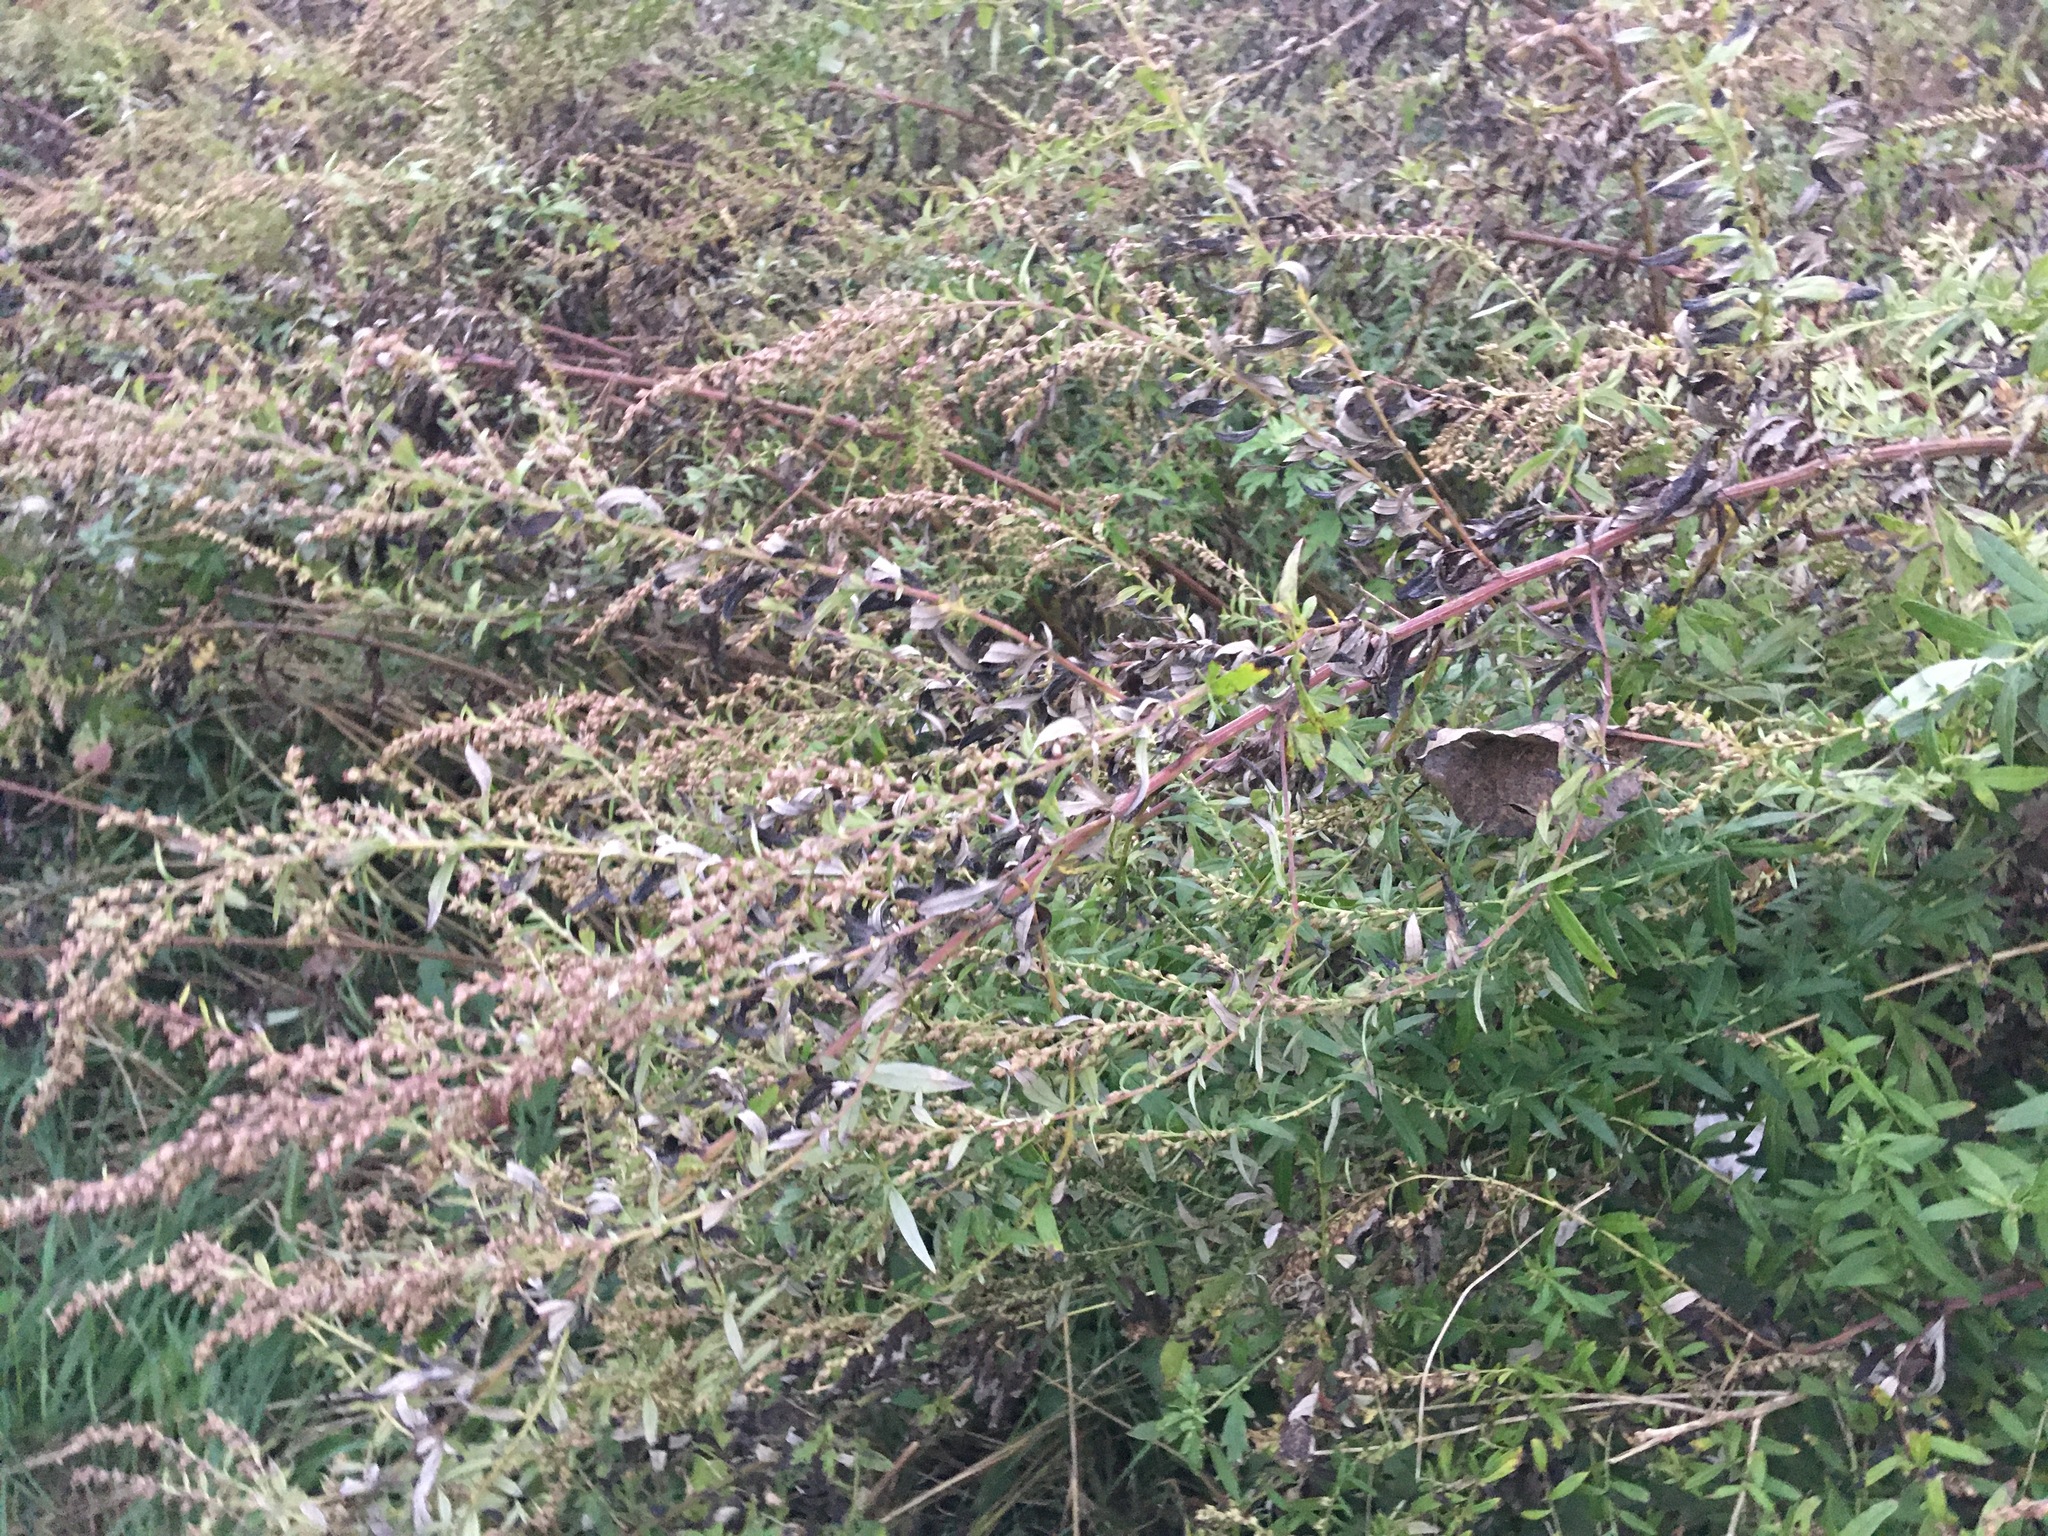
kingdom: Plantae
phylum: Tracheophyta
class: Magnoliopsida
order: Asterales
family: Asteraceae
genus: Artemisia
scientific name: Artemisia vulgaris
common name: Mugwort
